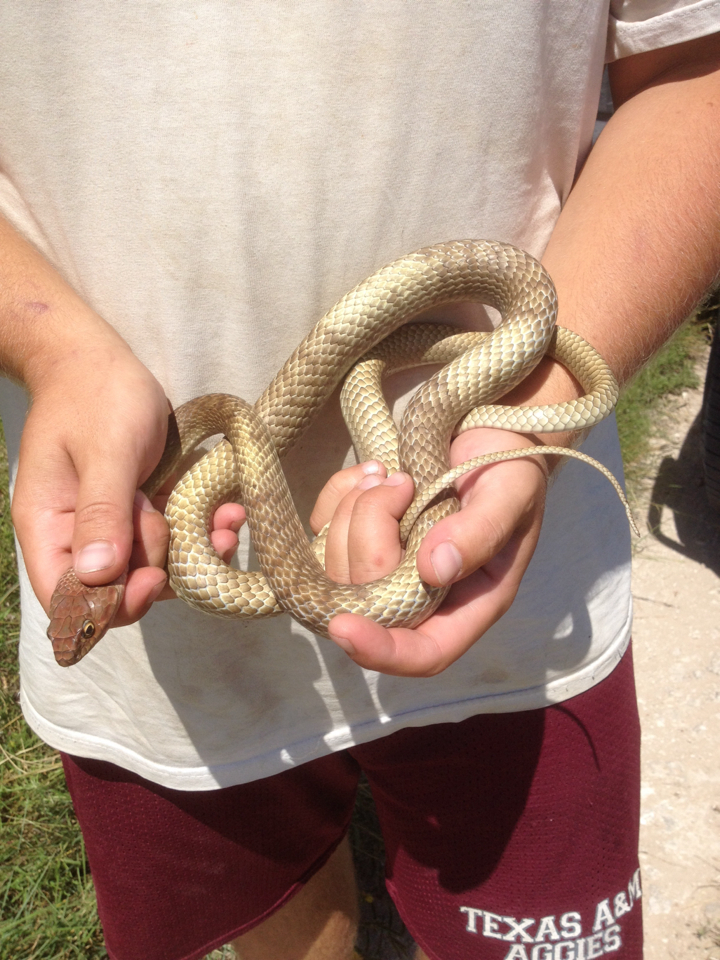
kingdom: Animalia
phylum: Chordata
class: Squamata
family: Colubridae
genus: Masticophis
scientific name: Masticophis flagellum
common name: Coachwhip
